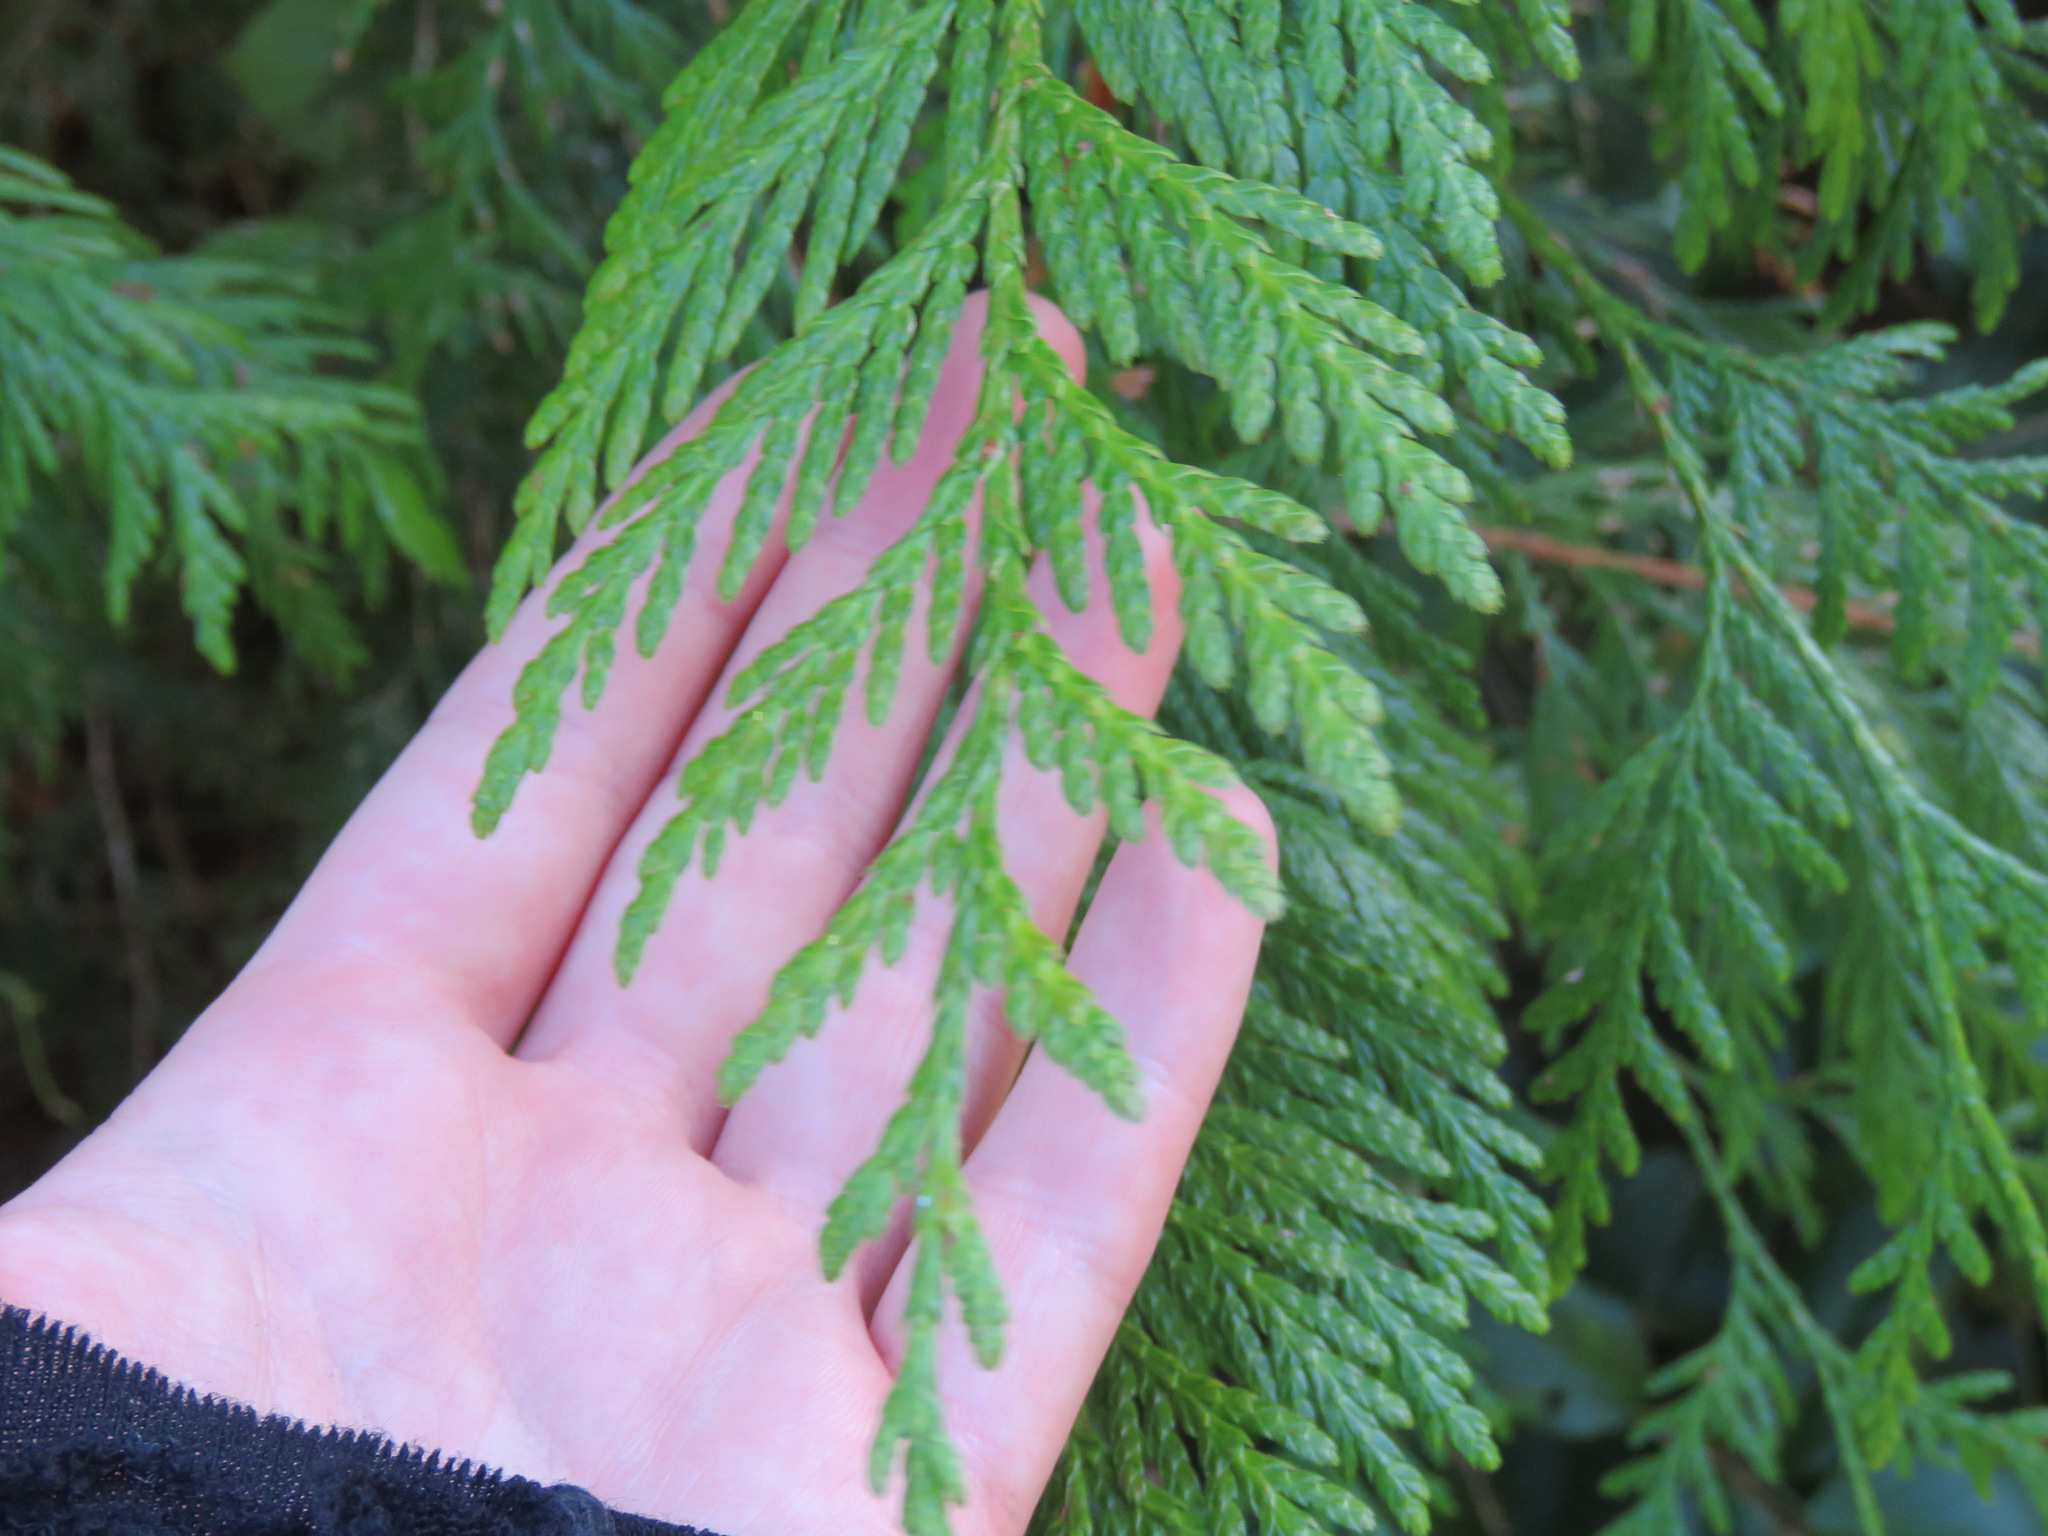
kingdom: Plantae
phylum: Tracheophyta
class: Pinopsida
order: Pinales
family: Cupressaceae
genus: Thuja
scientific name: Thuja plicata
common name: Western red-cedar
